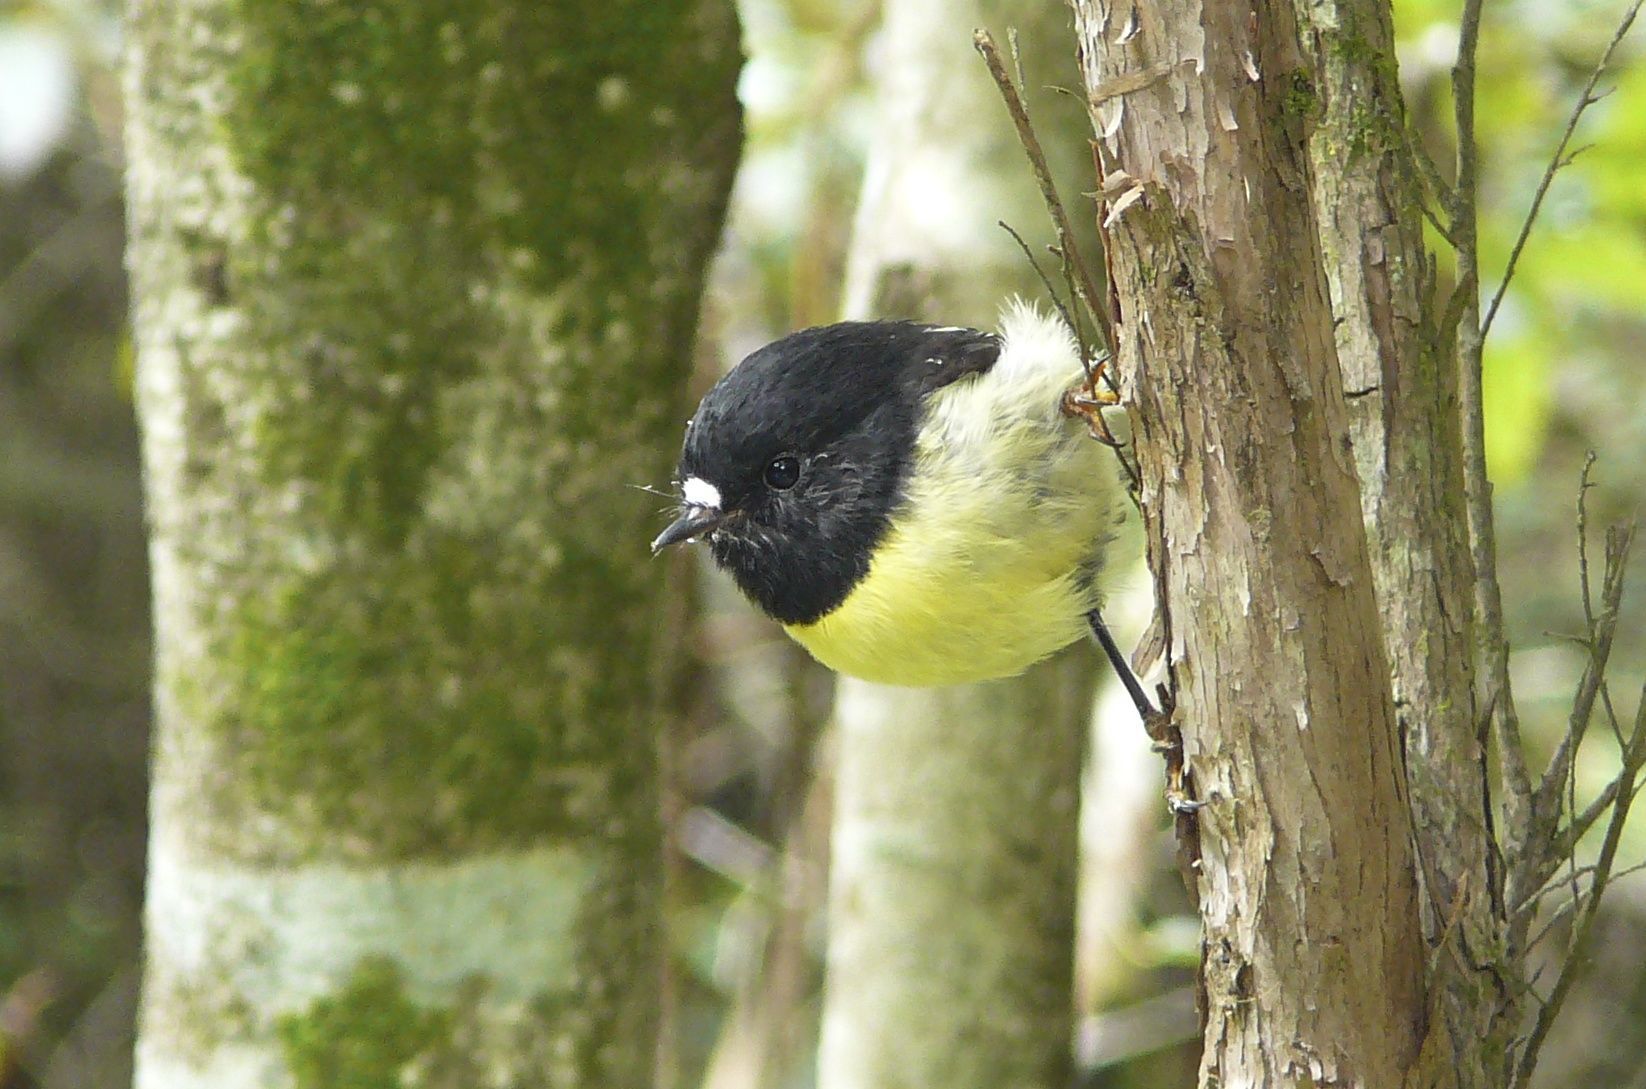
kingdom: Animalia
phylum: Chordata
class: Aves
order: Passeriformes
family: Petroicidae
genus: Petroica
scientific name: Petroica macrocephala
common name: Tomtit
